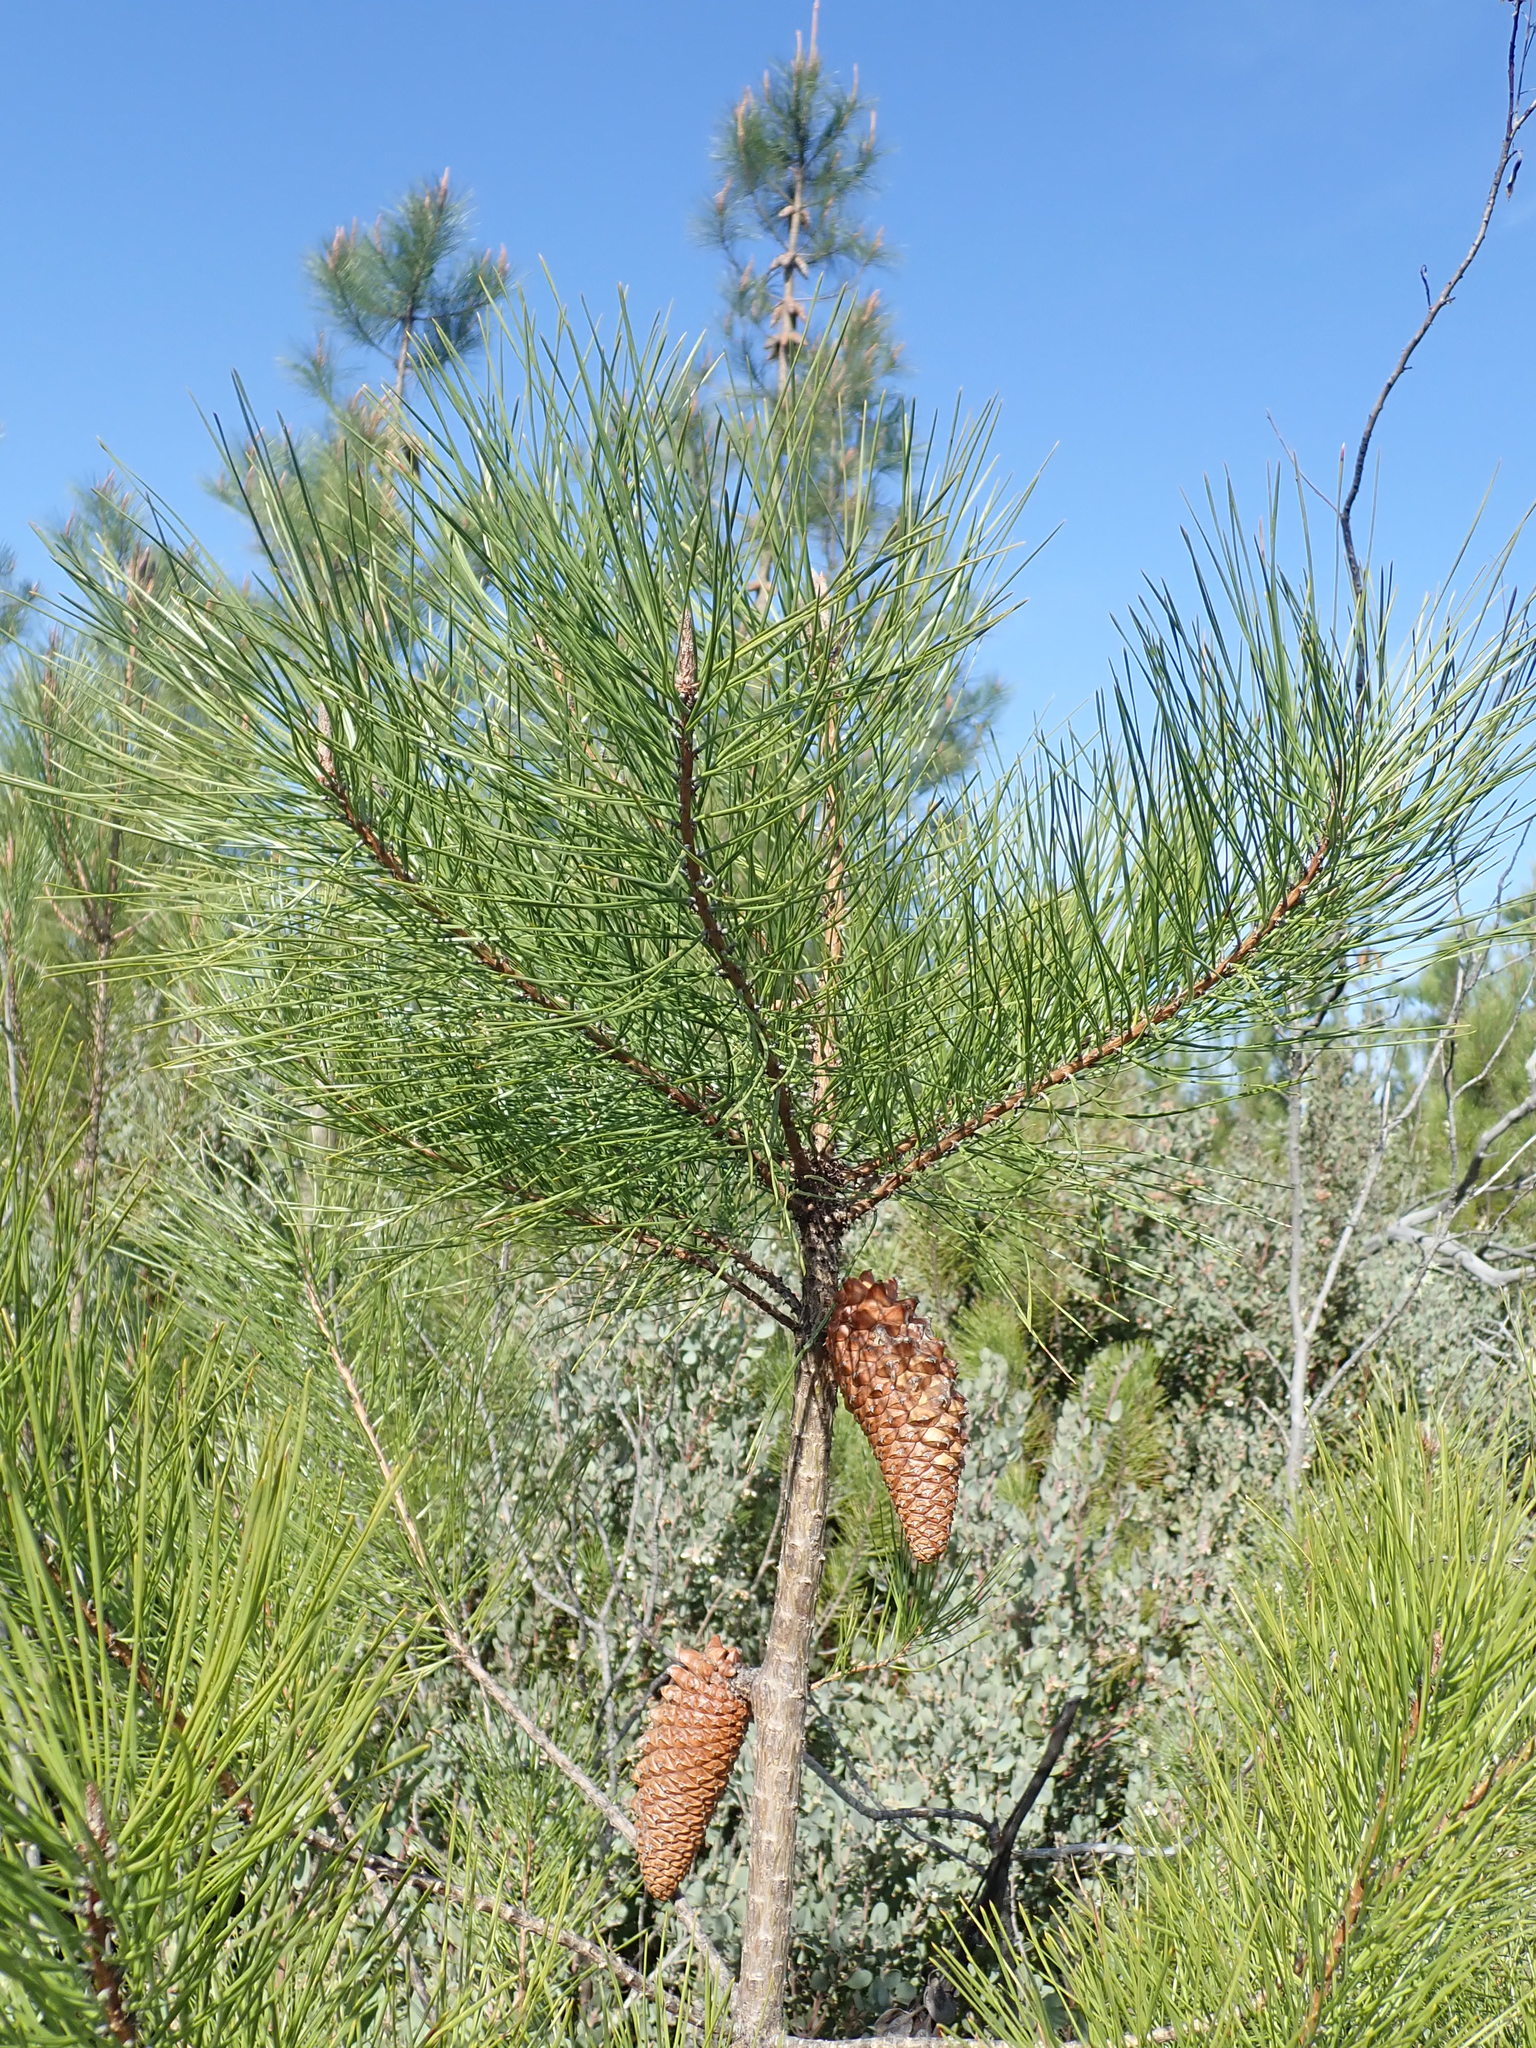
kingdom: Plantae
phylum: Tracheophyta
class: Pinopsida
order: Pinales
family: Pinaceae
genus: Pinus
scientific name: Pinus attenuata
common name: Knobcone pine
